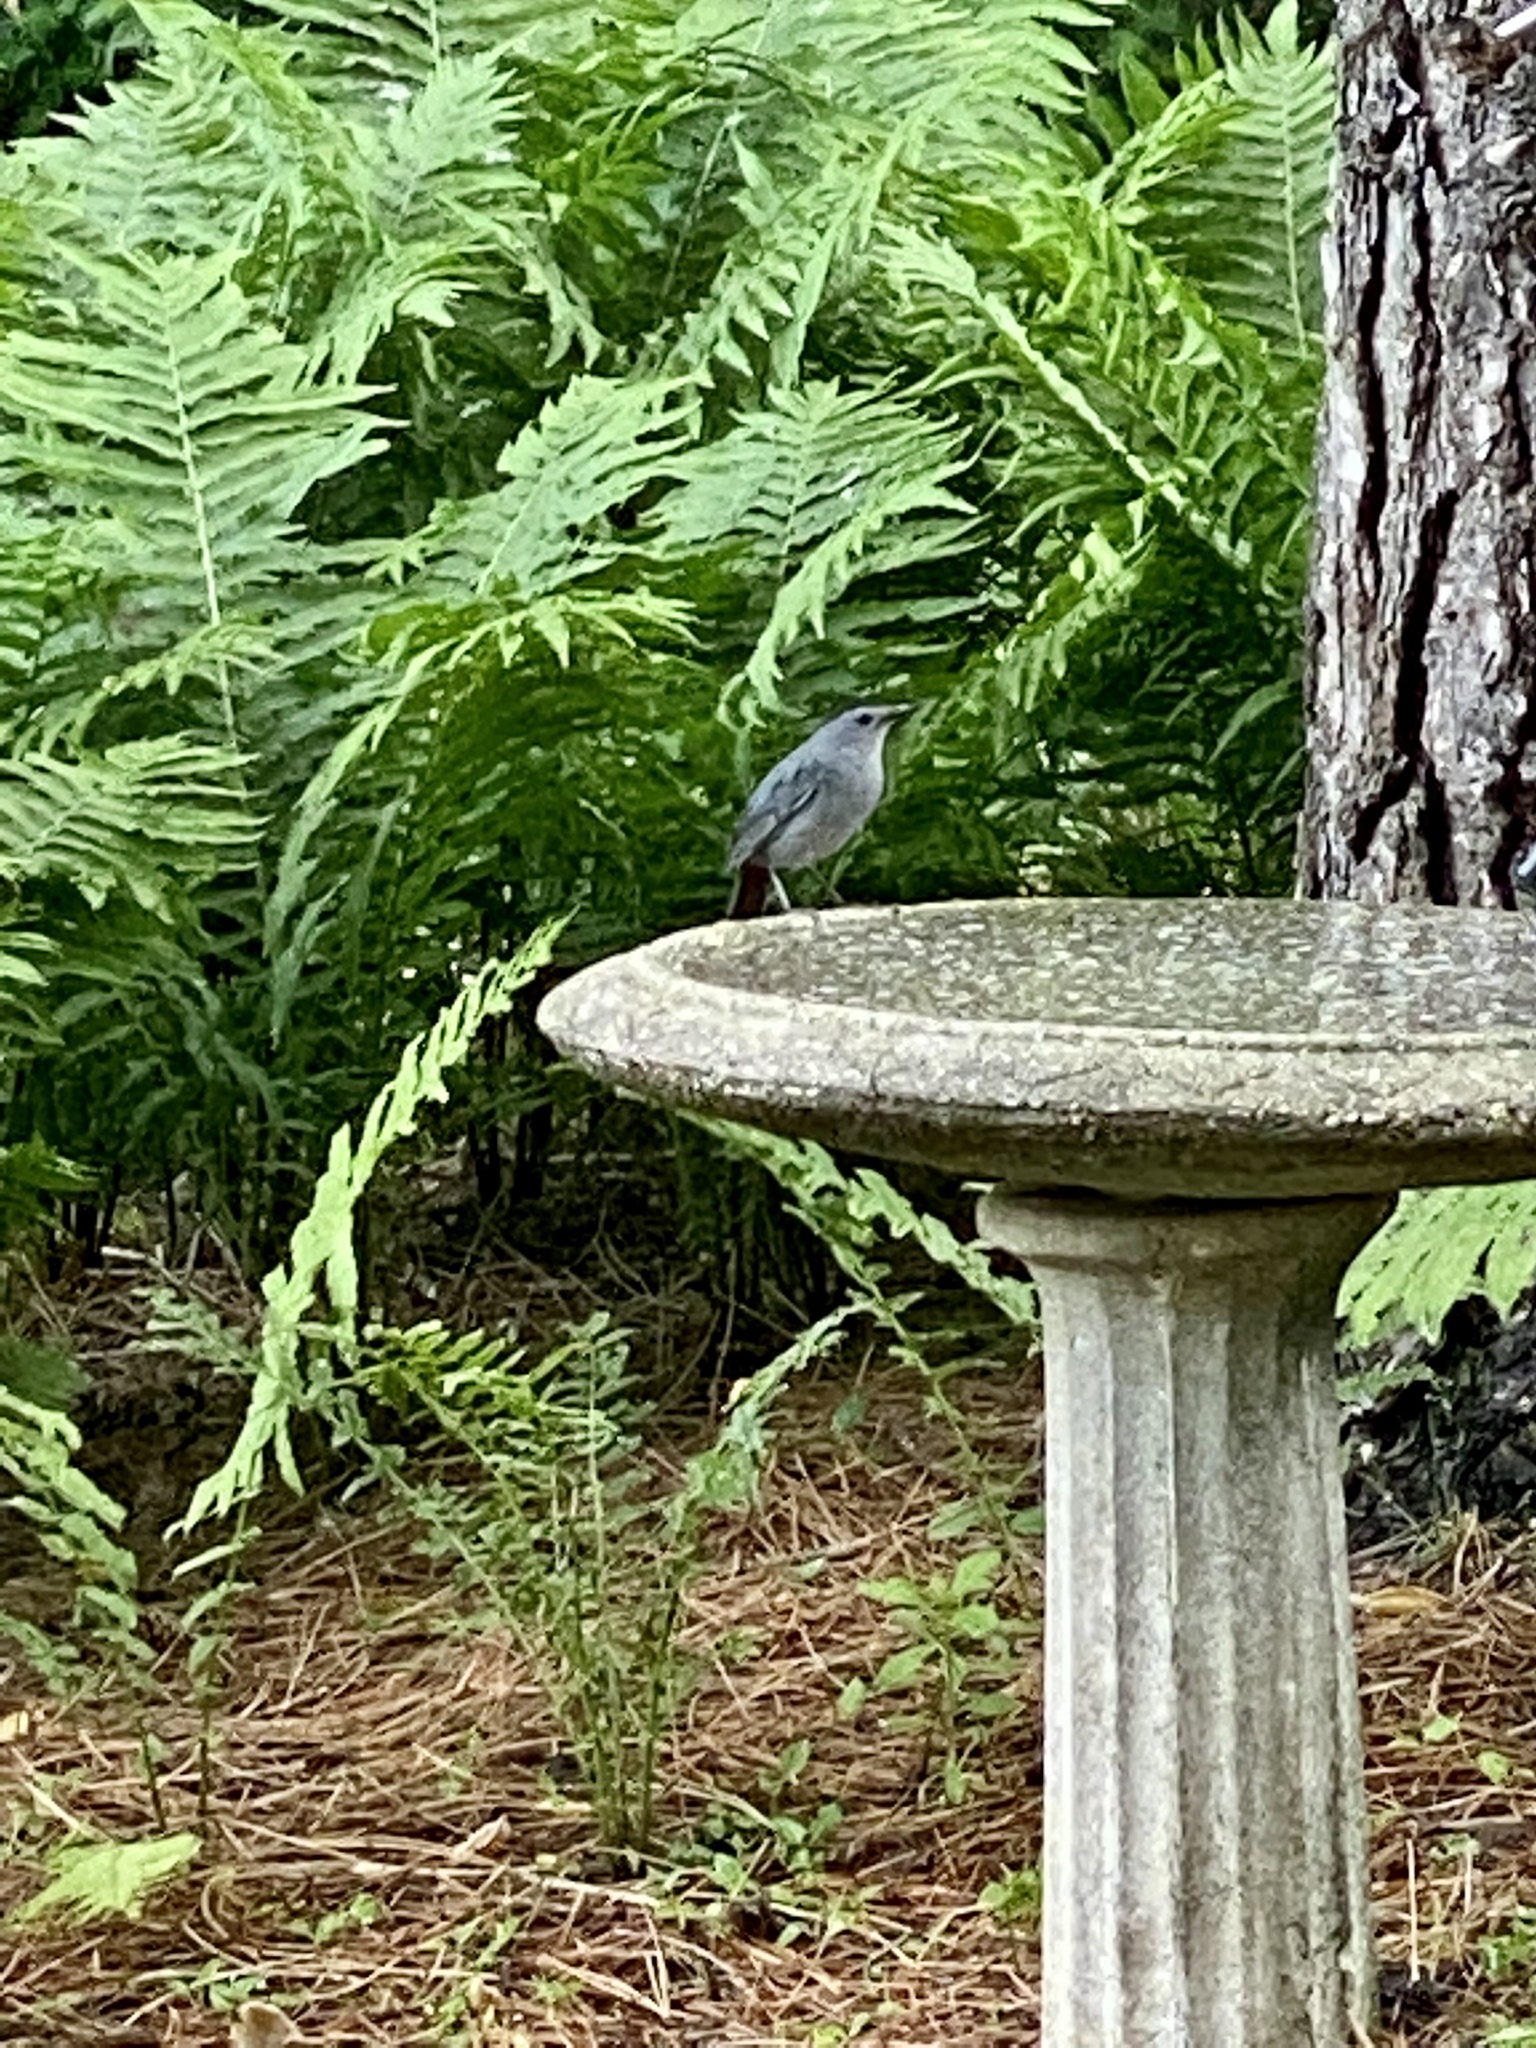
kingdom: Animalia
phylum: Chordata
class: Aves
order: Passeriformes
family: Mimidae
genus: Dumetella
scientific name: Dumetella carolinensis
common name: Gray catbird
